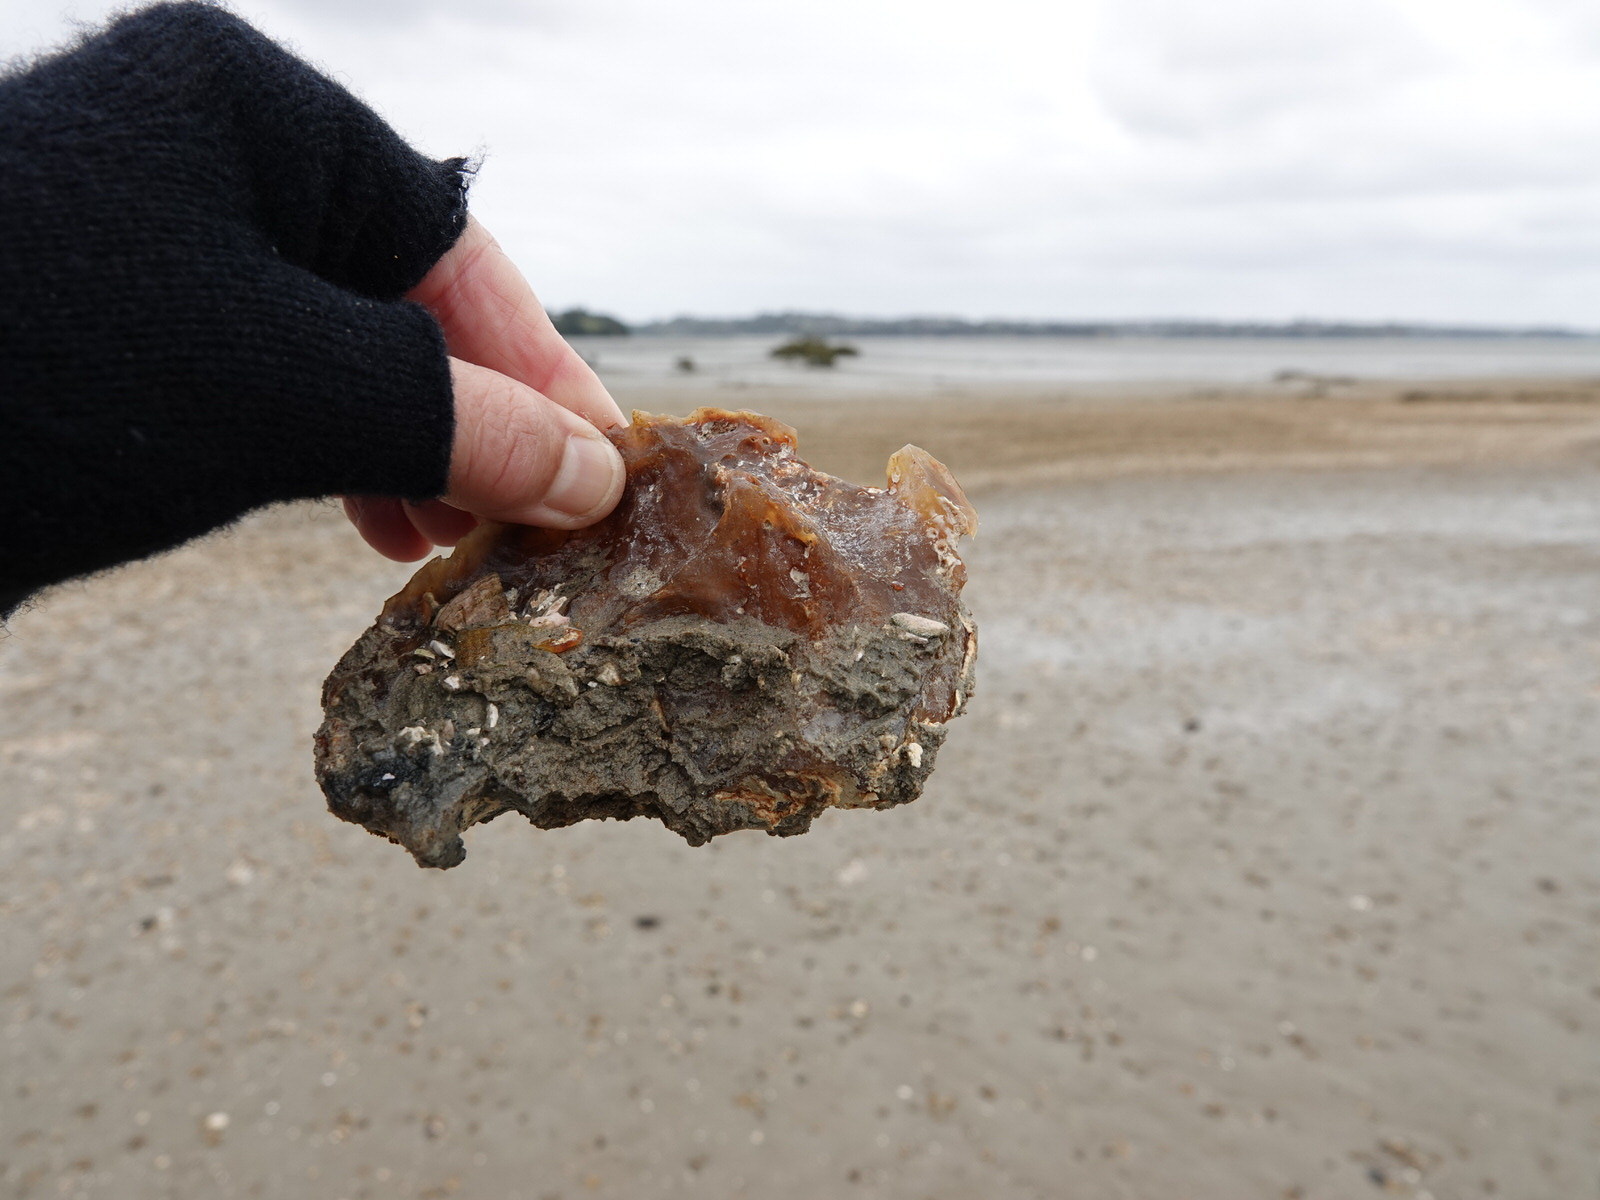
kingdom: Plantae
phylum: Tracheophyta
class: Pinopsida
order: Pinales
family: Araucariaceae
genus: Agathis
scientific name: Agathis australis
